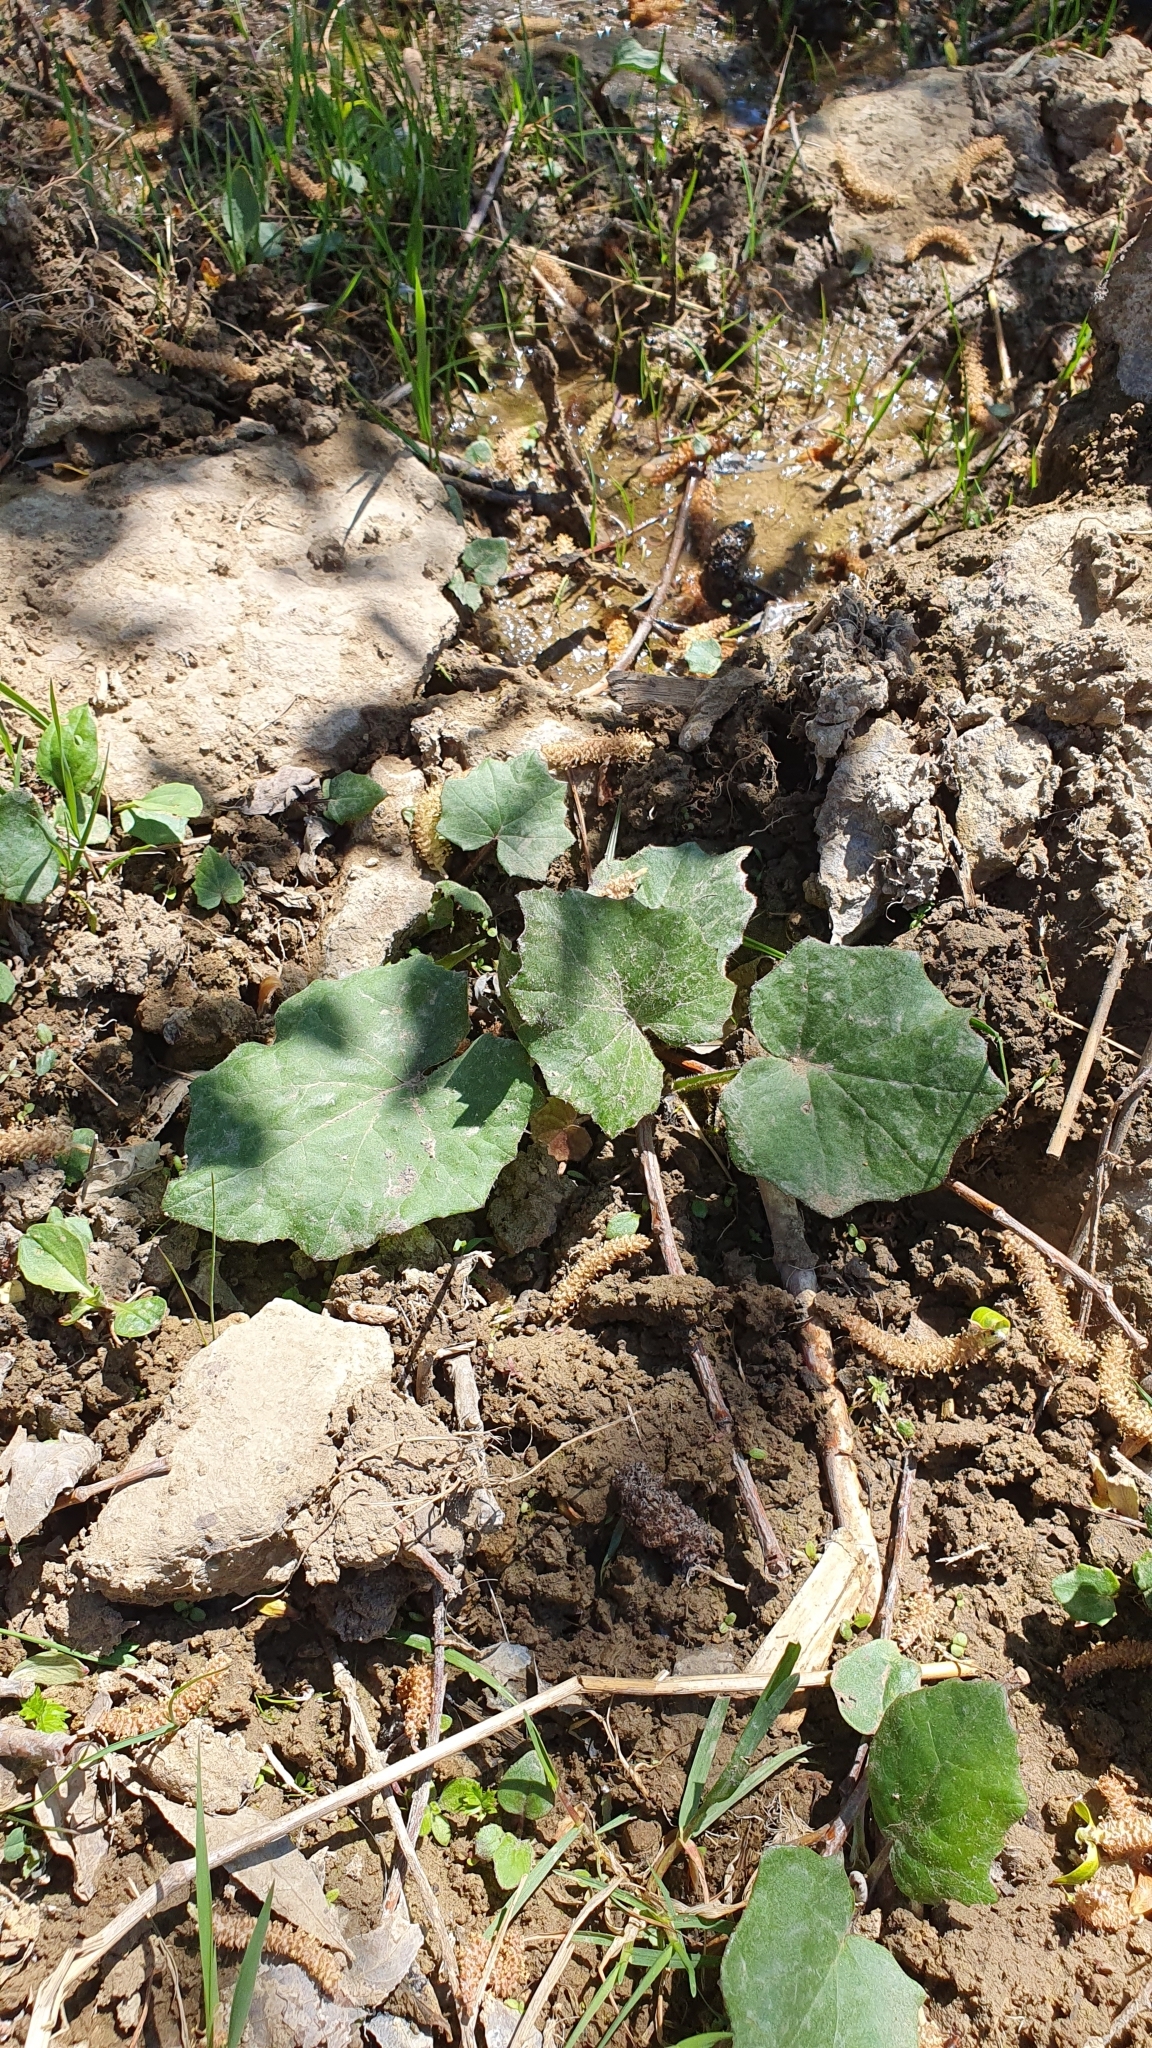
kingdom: Plantae
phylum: Tracheophyta
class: Magnoliopsida
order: Asterales
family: Asteraceae
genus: Tussilago
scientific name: Tussilago farfara
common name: Coltsfoot
